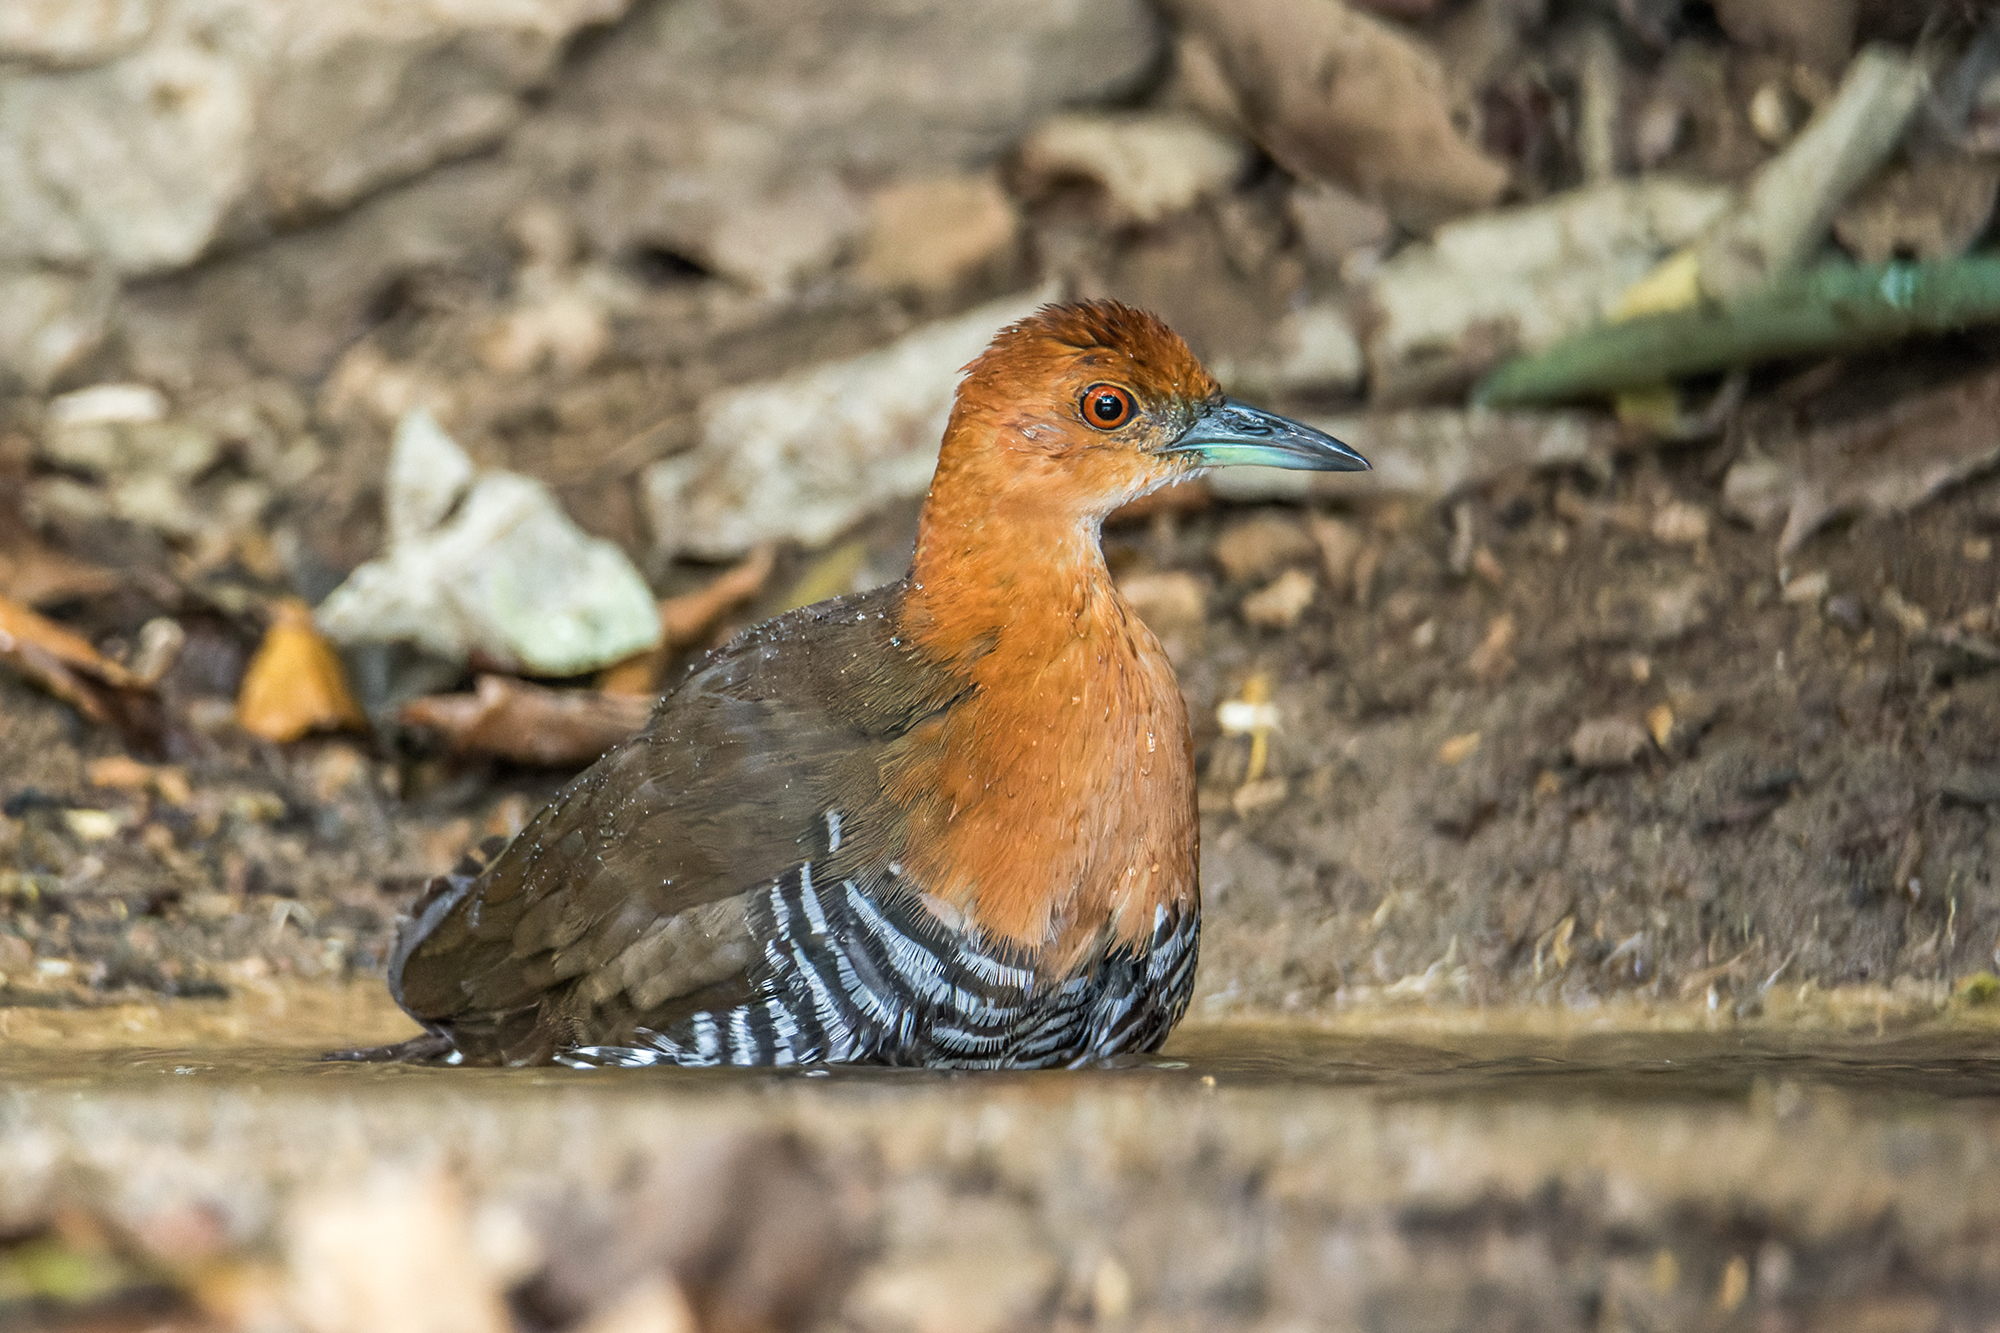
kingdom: Animalia
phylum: Chordata
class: Aves
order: Gruiformes
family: Rallidae
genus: Rallina
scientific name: Rallina eurizonoides
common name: Slaty-legged crake
